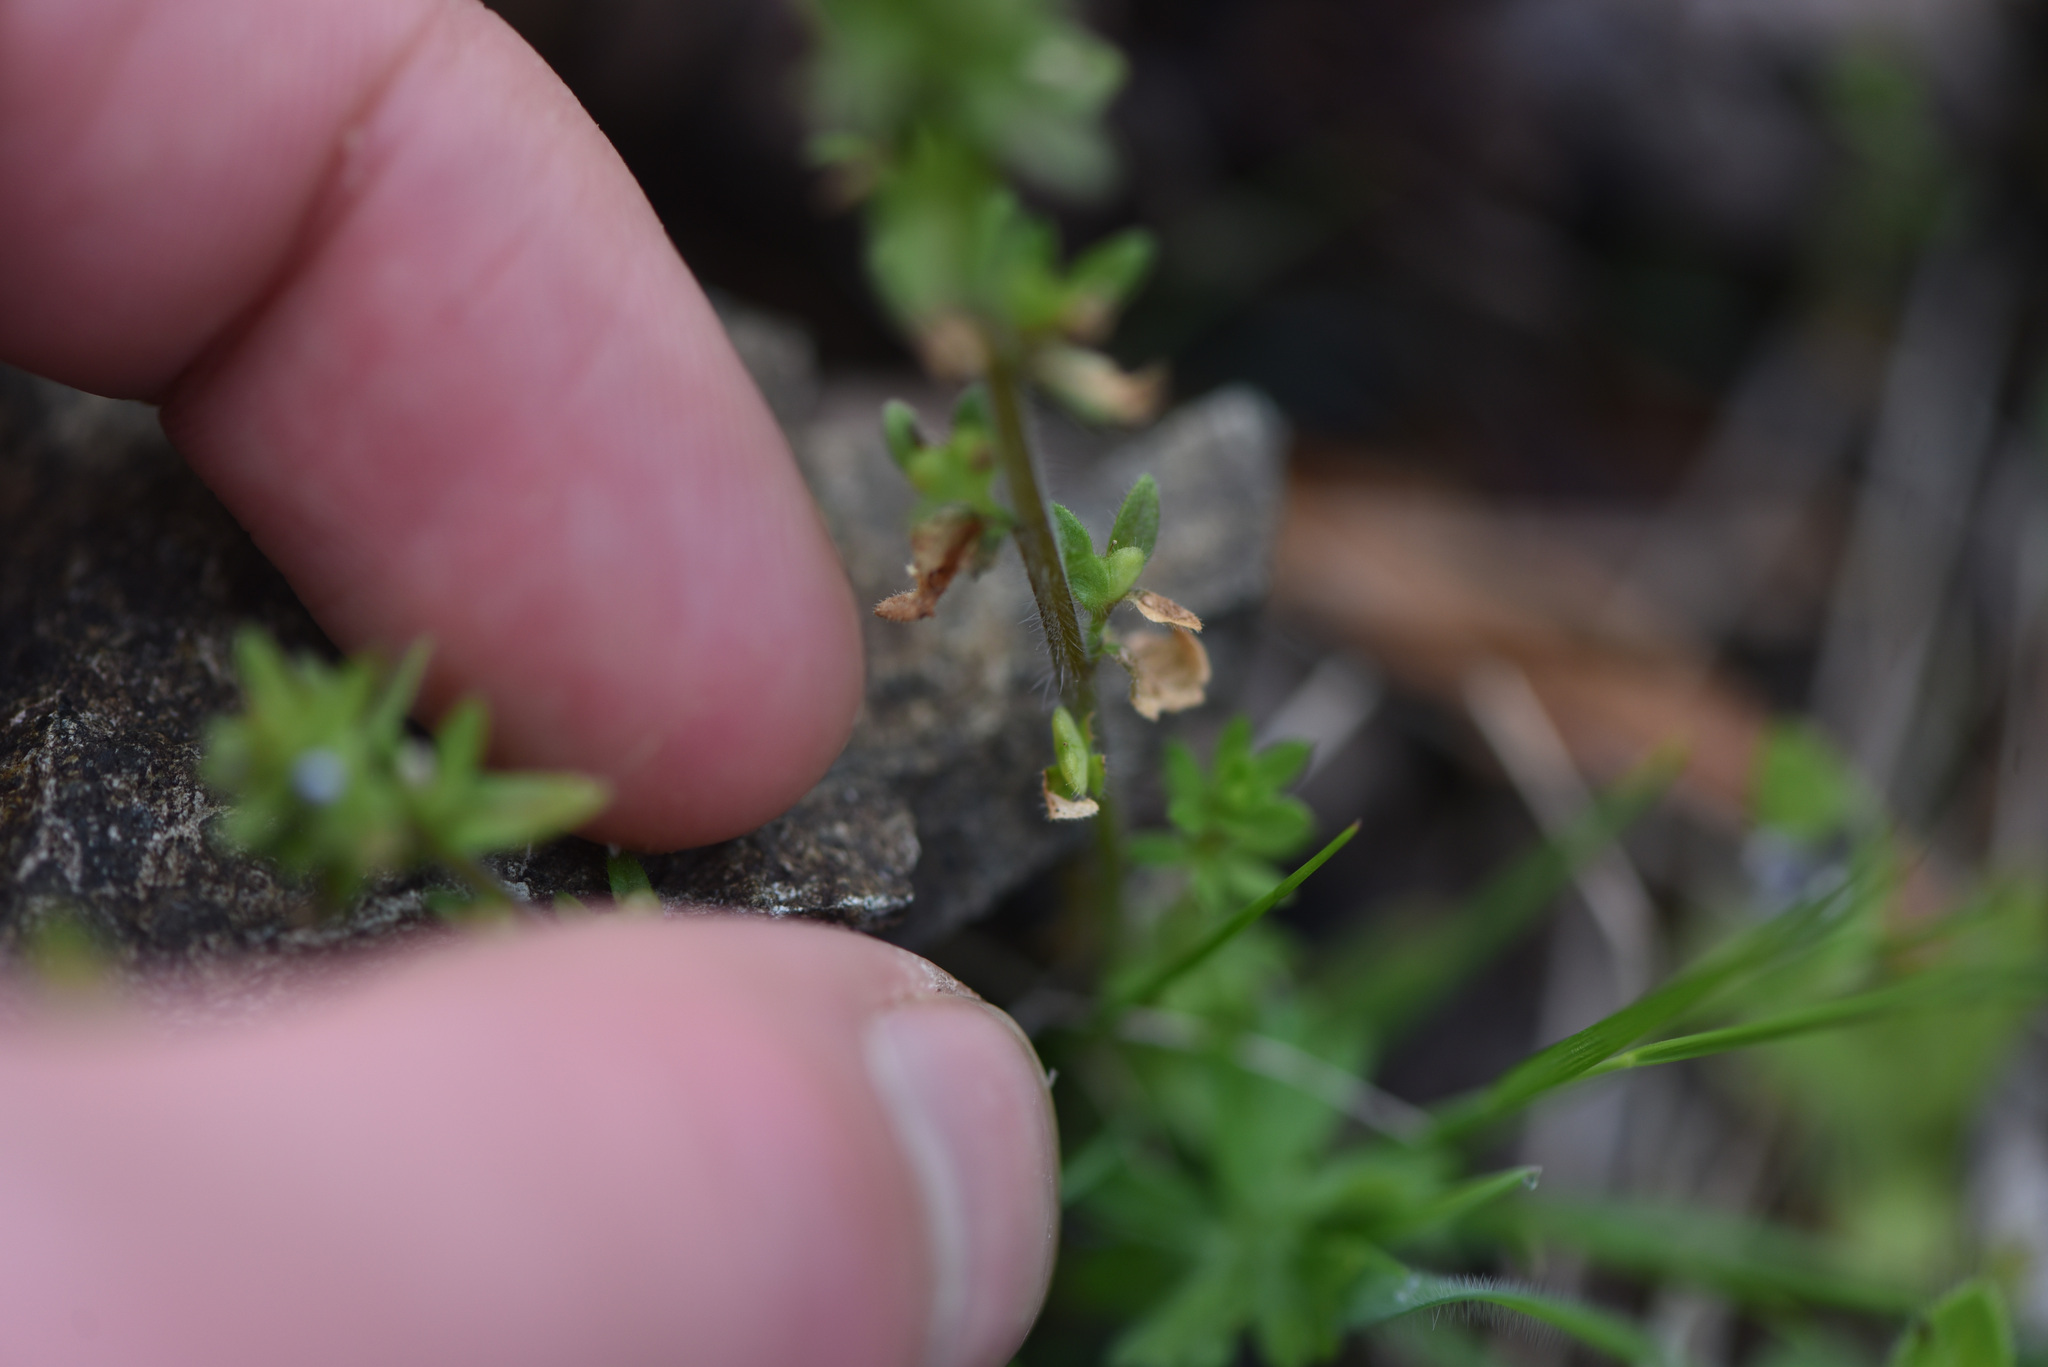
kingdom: Plantae
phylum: Tracheophyta
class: Magnoliopsida
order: Lamiales
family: Plantaginaceae
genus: Veronica
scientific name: Veronica arvensis
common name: Corn speedwell
